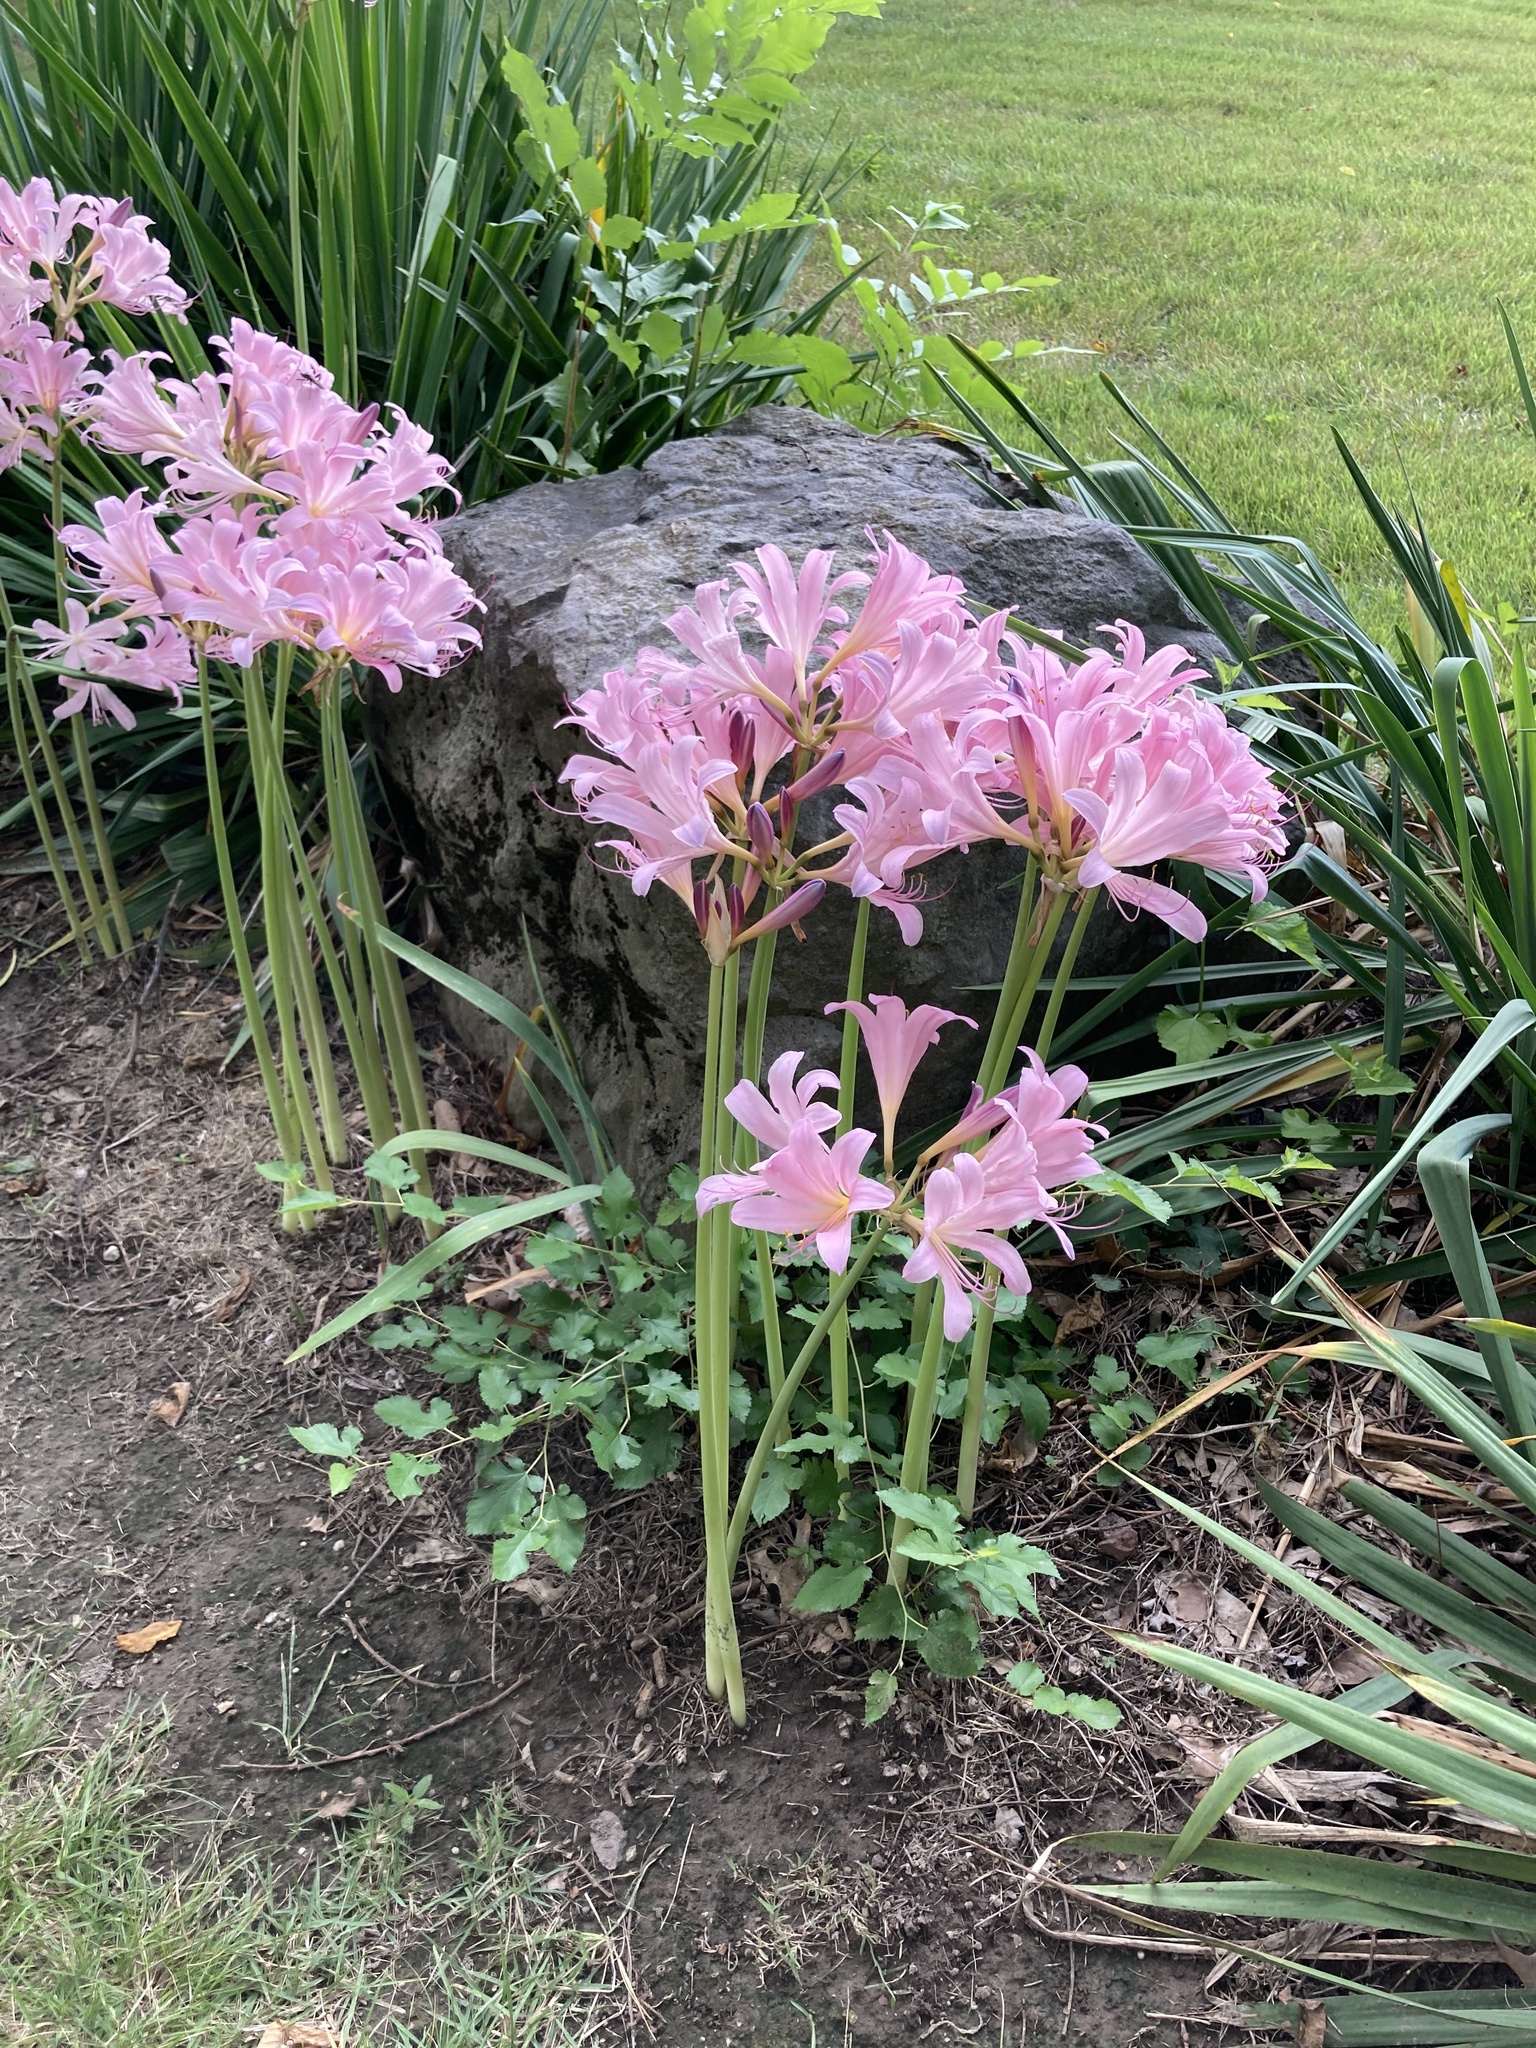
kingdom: Plantae
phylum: Tracheophyta
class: Liliopsida
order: Asparagales
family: Amaryllidaceae
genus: Lycoris
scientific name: Lycoris squamigera
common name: Magic-lily
